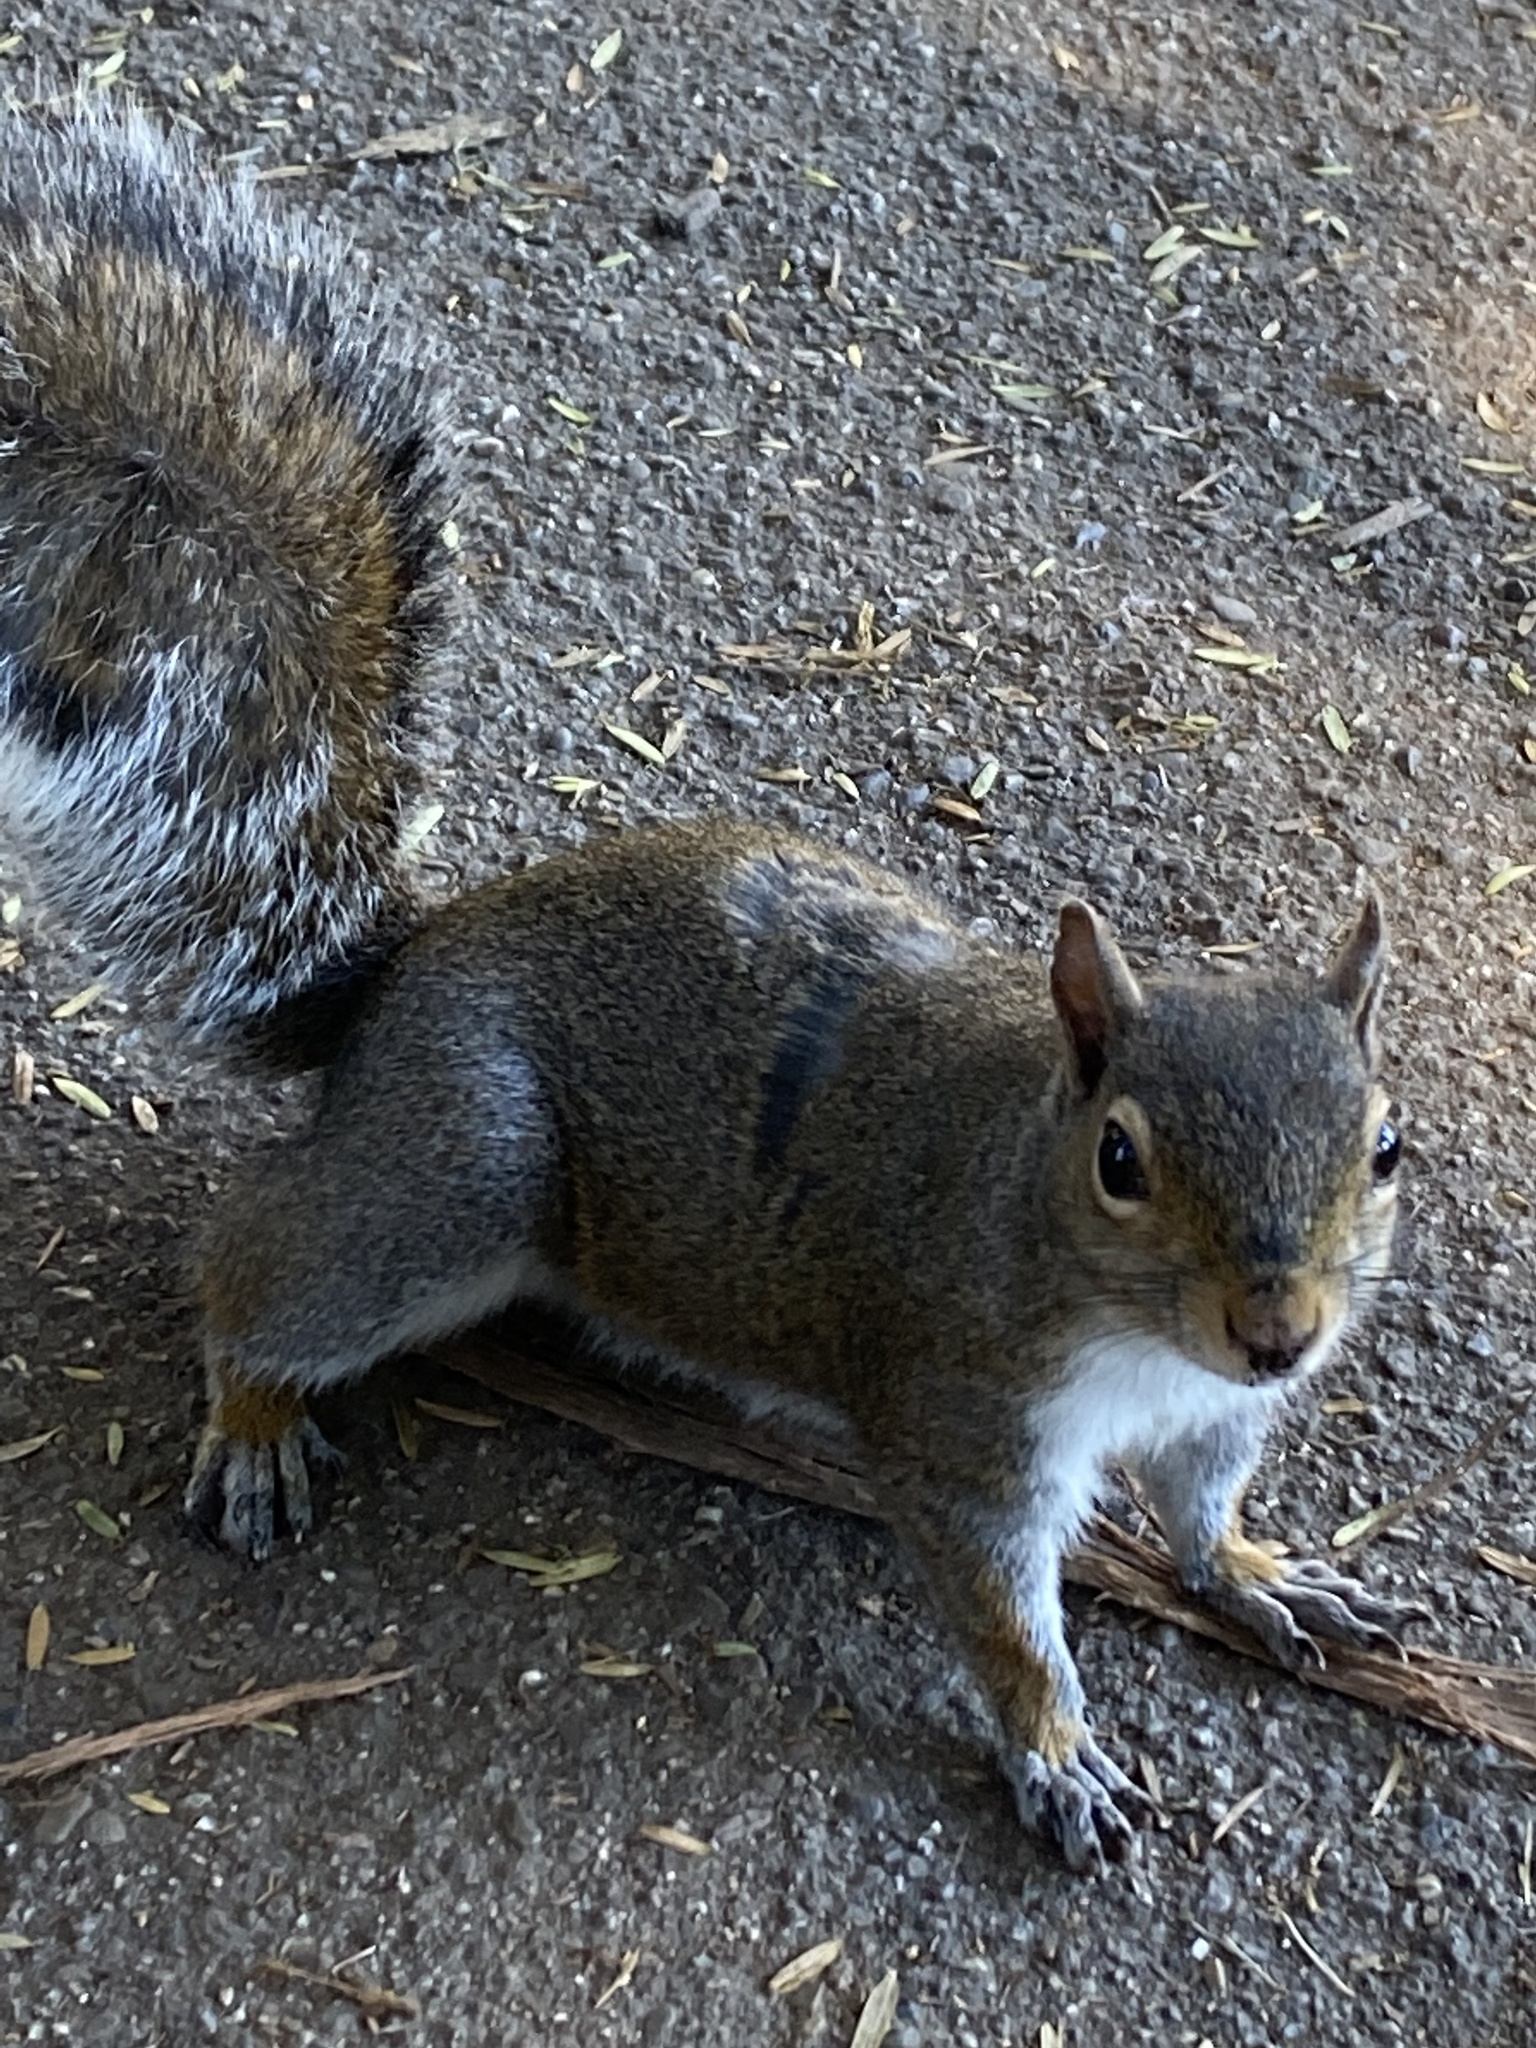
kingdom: Animalia
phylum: Chordata
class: Mammalia
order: Rodentia
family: Sciuridae
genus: Sciurus
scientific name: Sciurus carolinensis
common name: Eastern gray squirrel
